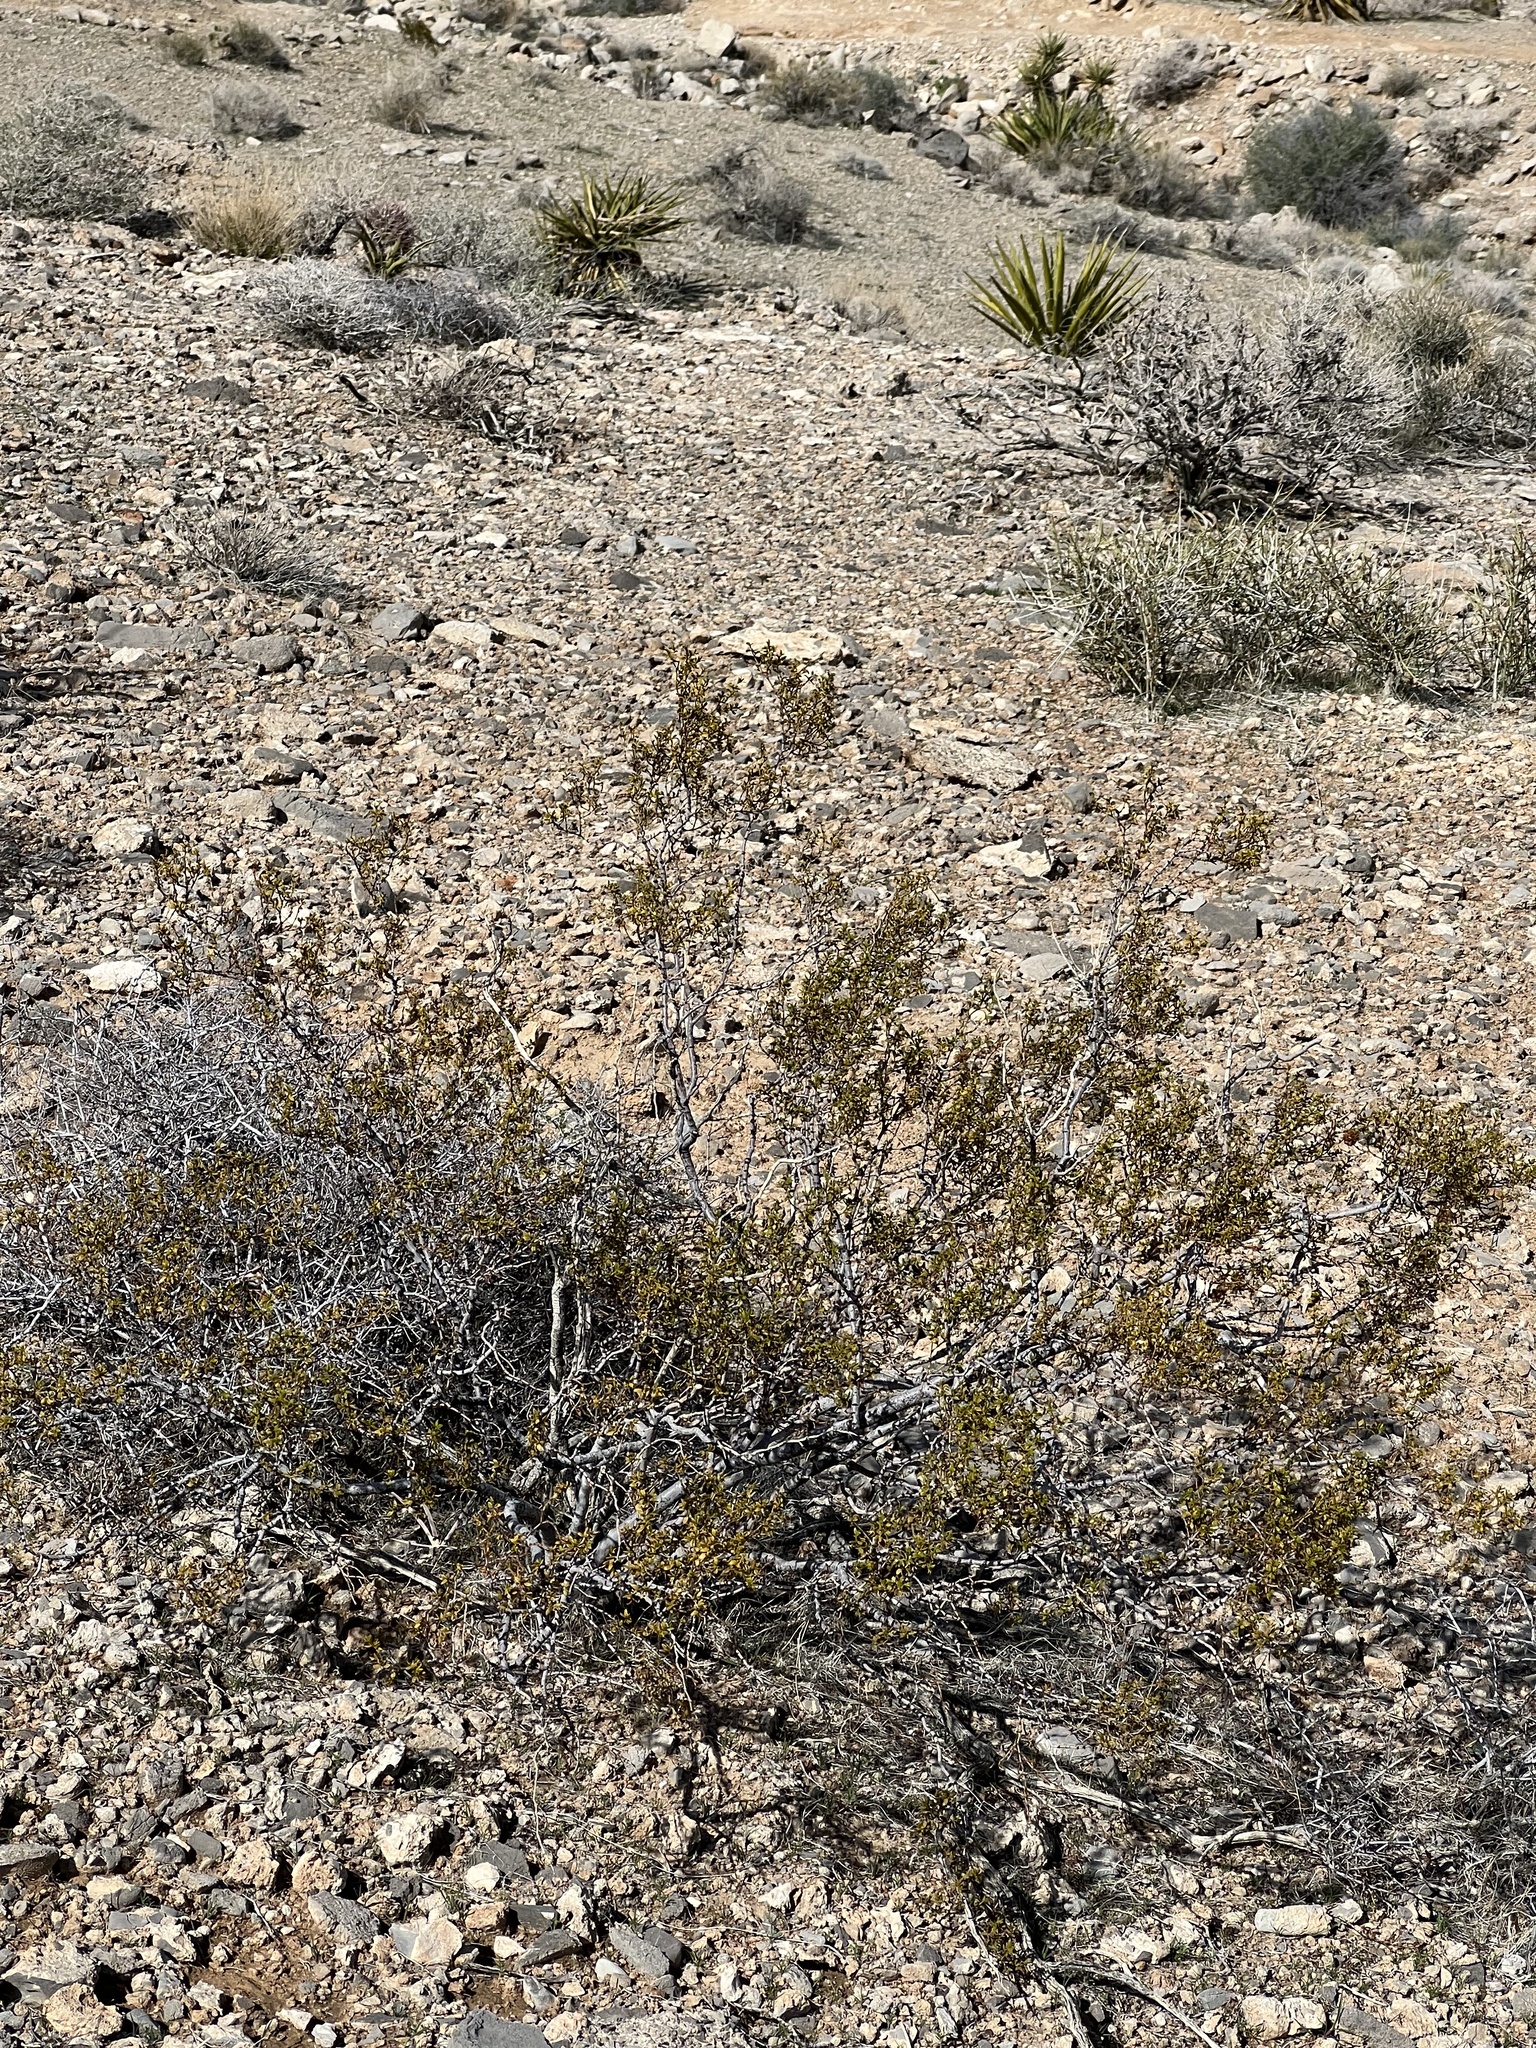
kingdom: Plantae
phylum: Tracheophyta
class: Magnoliopsida
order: Zygophyllales
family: Zygophyllaceae
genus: Larrea
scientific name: Larrea tridentata
